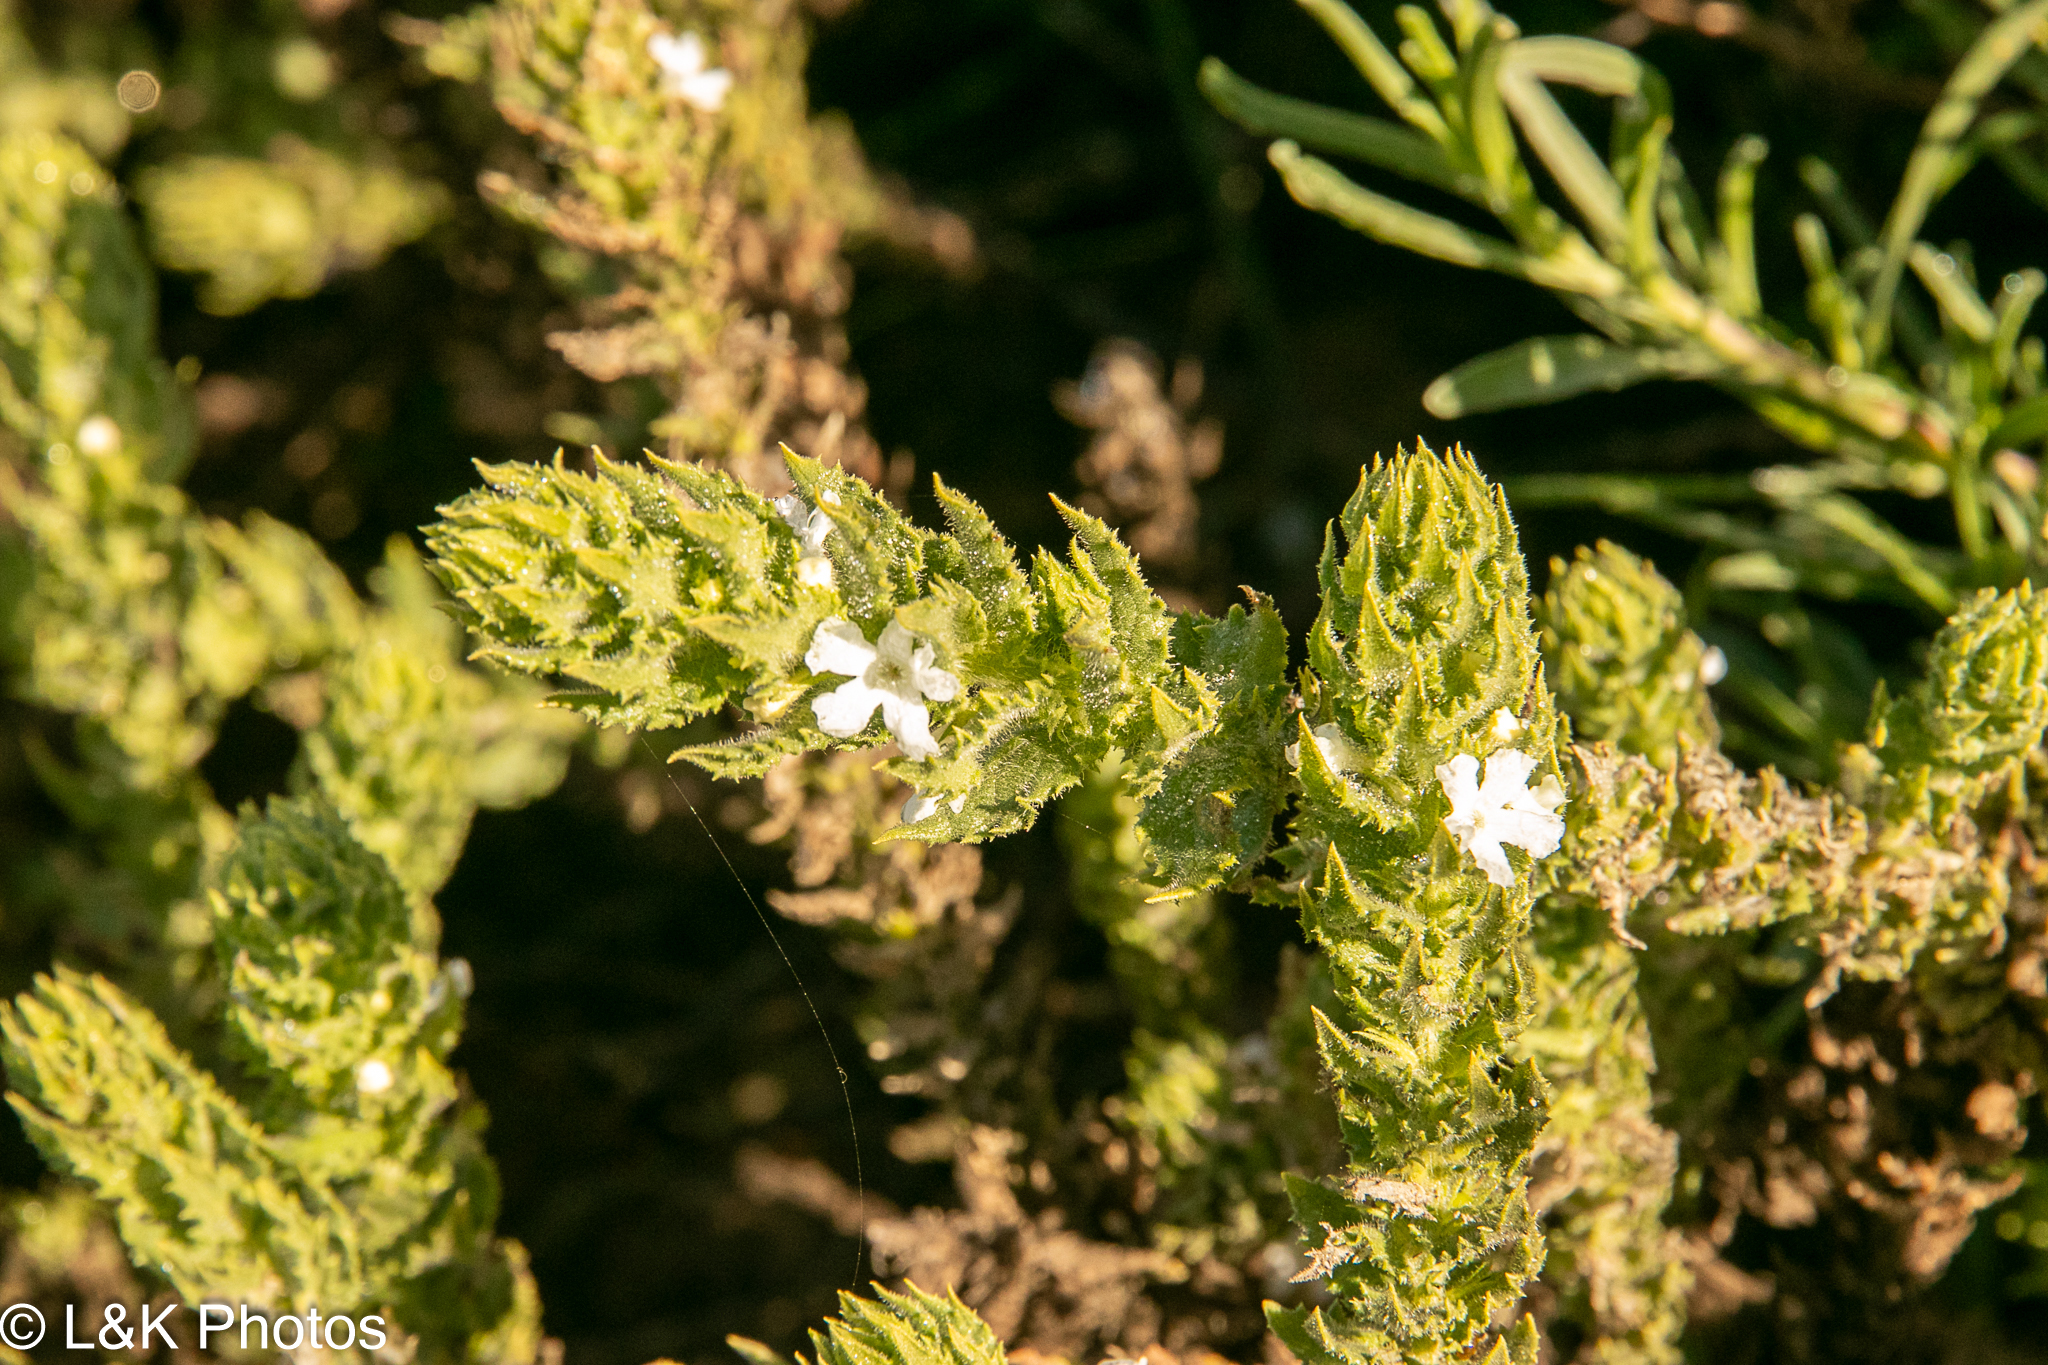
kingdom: Plantae
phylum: Tracheophyta
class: Magnoliopsida
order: Lamiales
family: Scrophulariaceae
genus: Oftia
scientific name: Oftia africana
